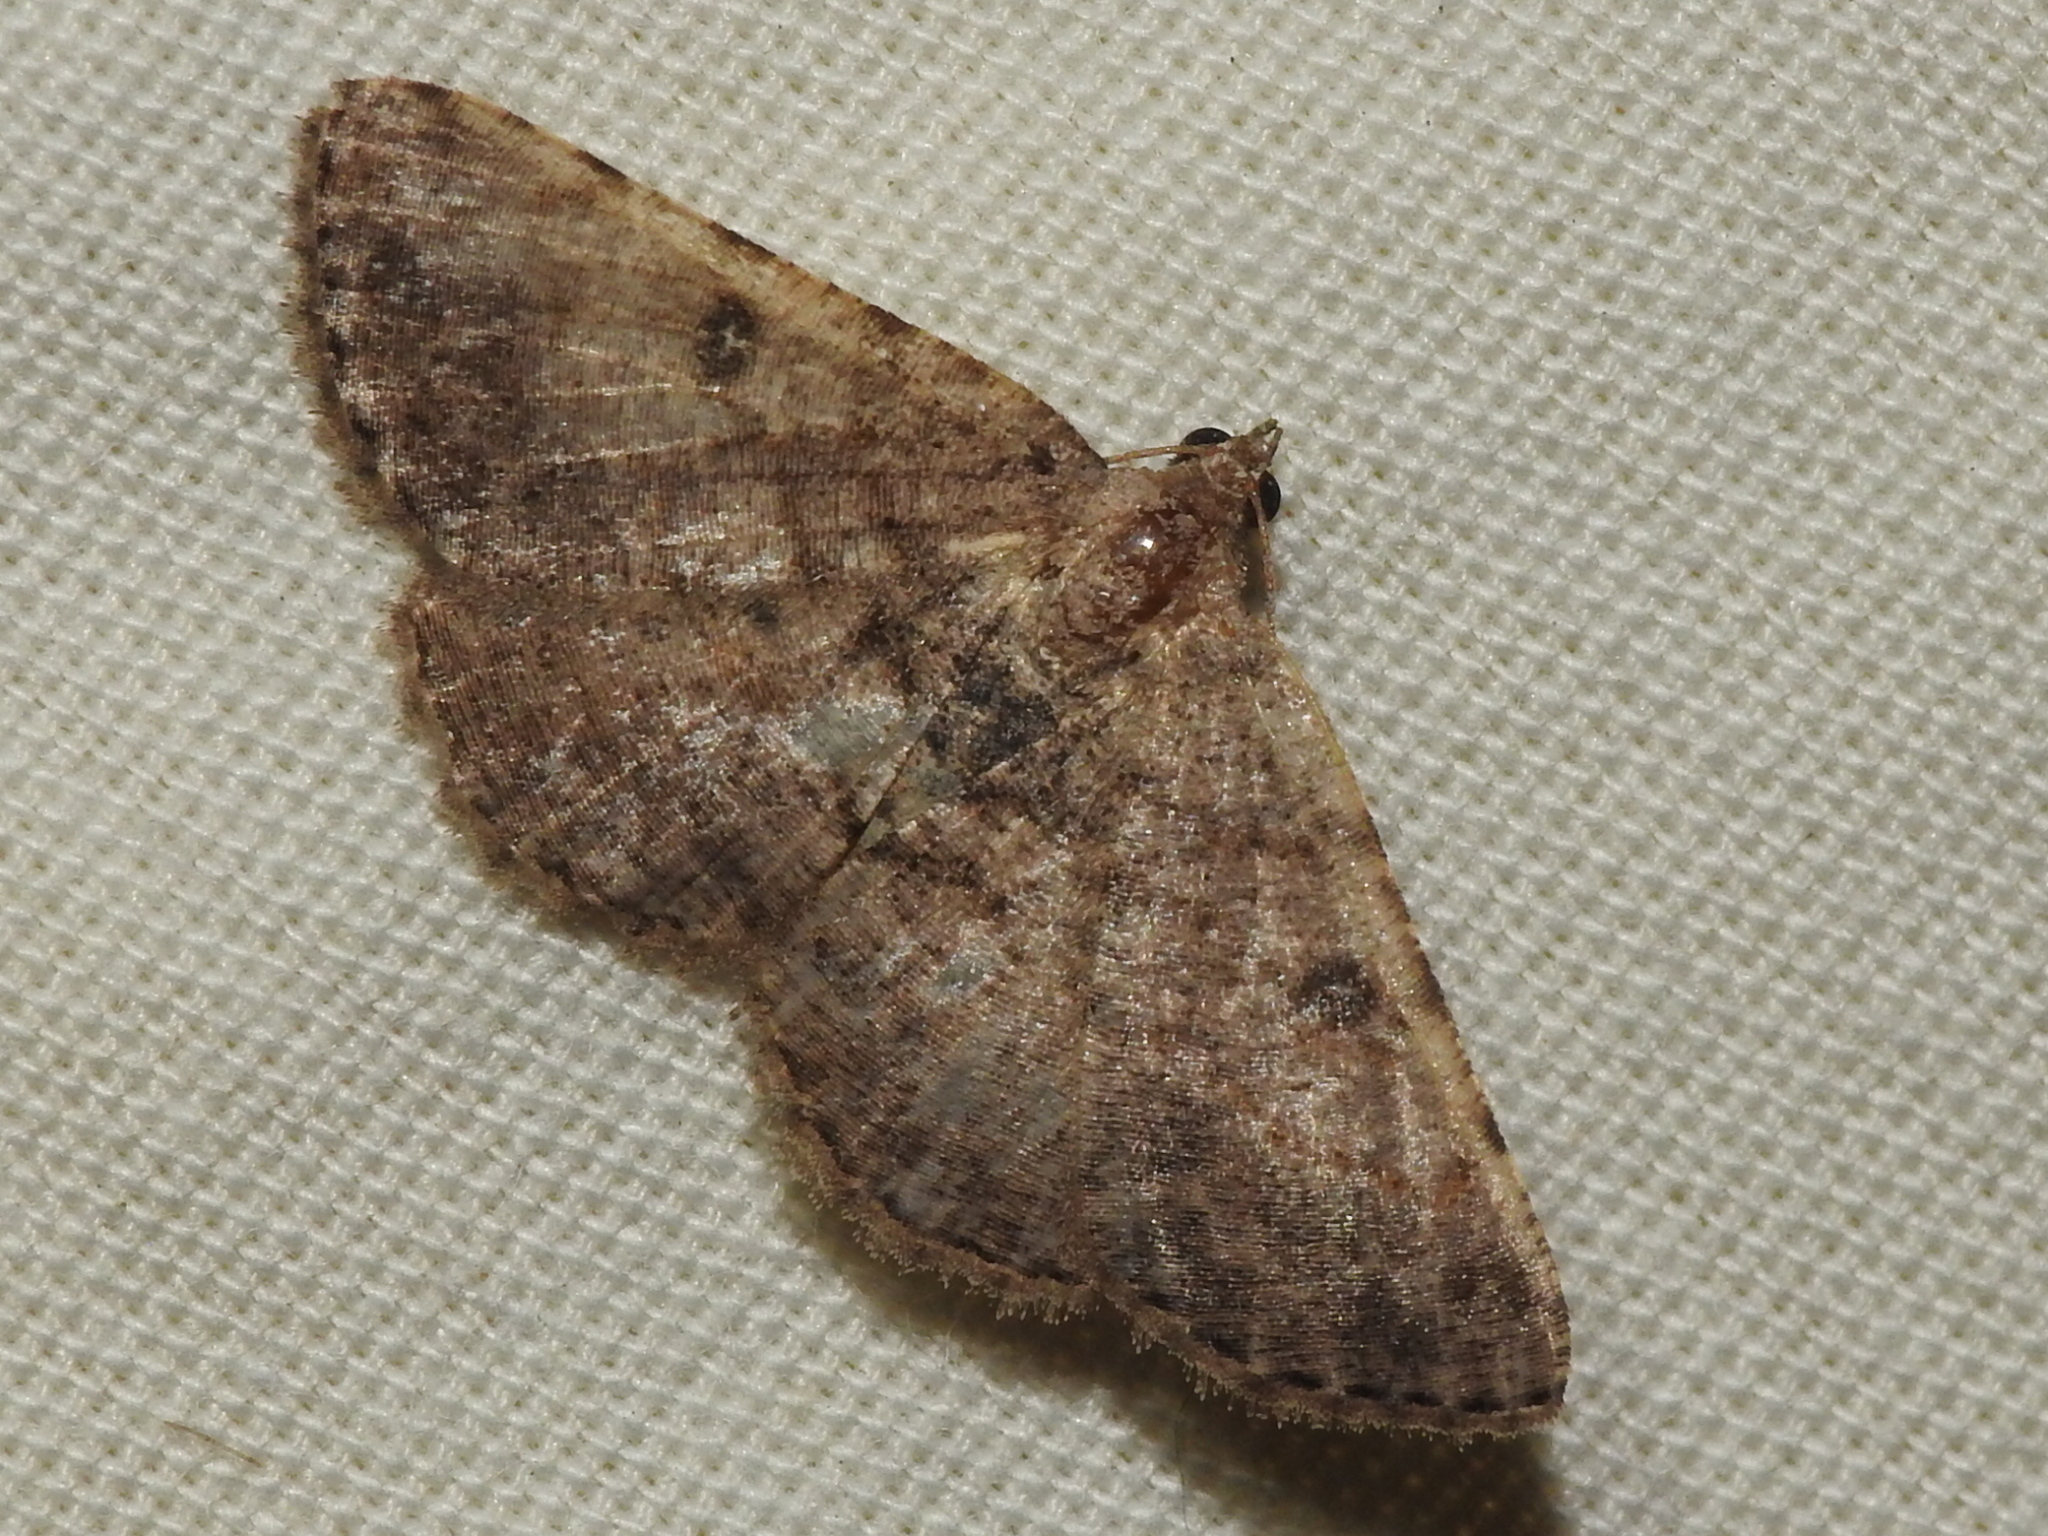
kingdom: Animalia
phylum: Arthropoda
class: Insecta
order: Lepidoptera
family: Geometridae
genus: Digrammia
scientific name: Digrammia gnophosaria
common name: Hollow-spotted angle
